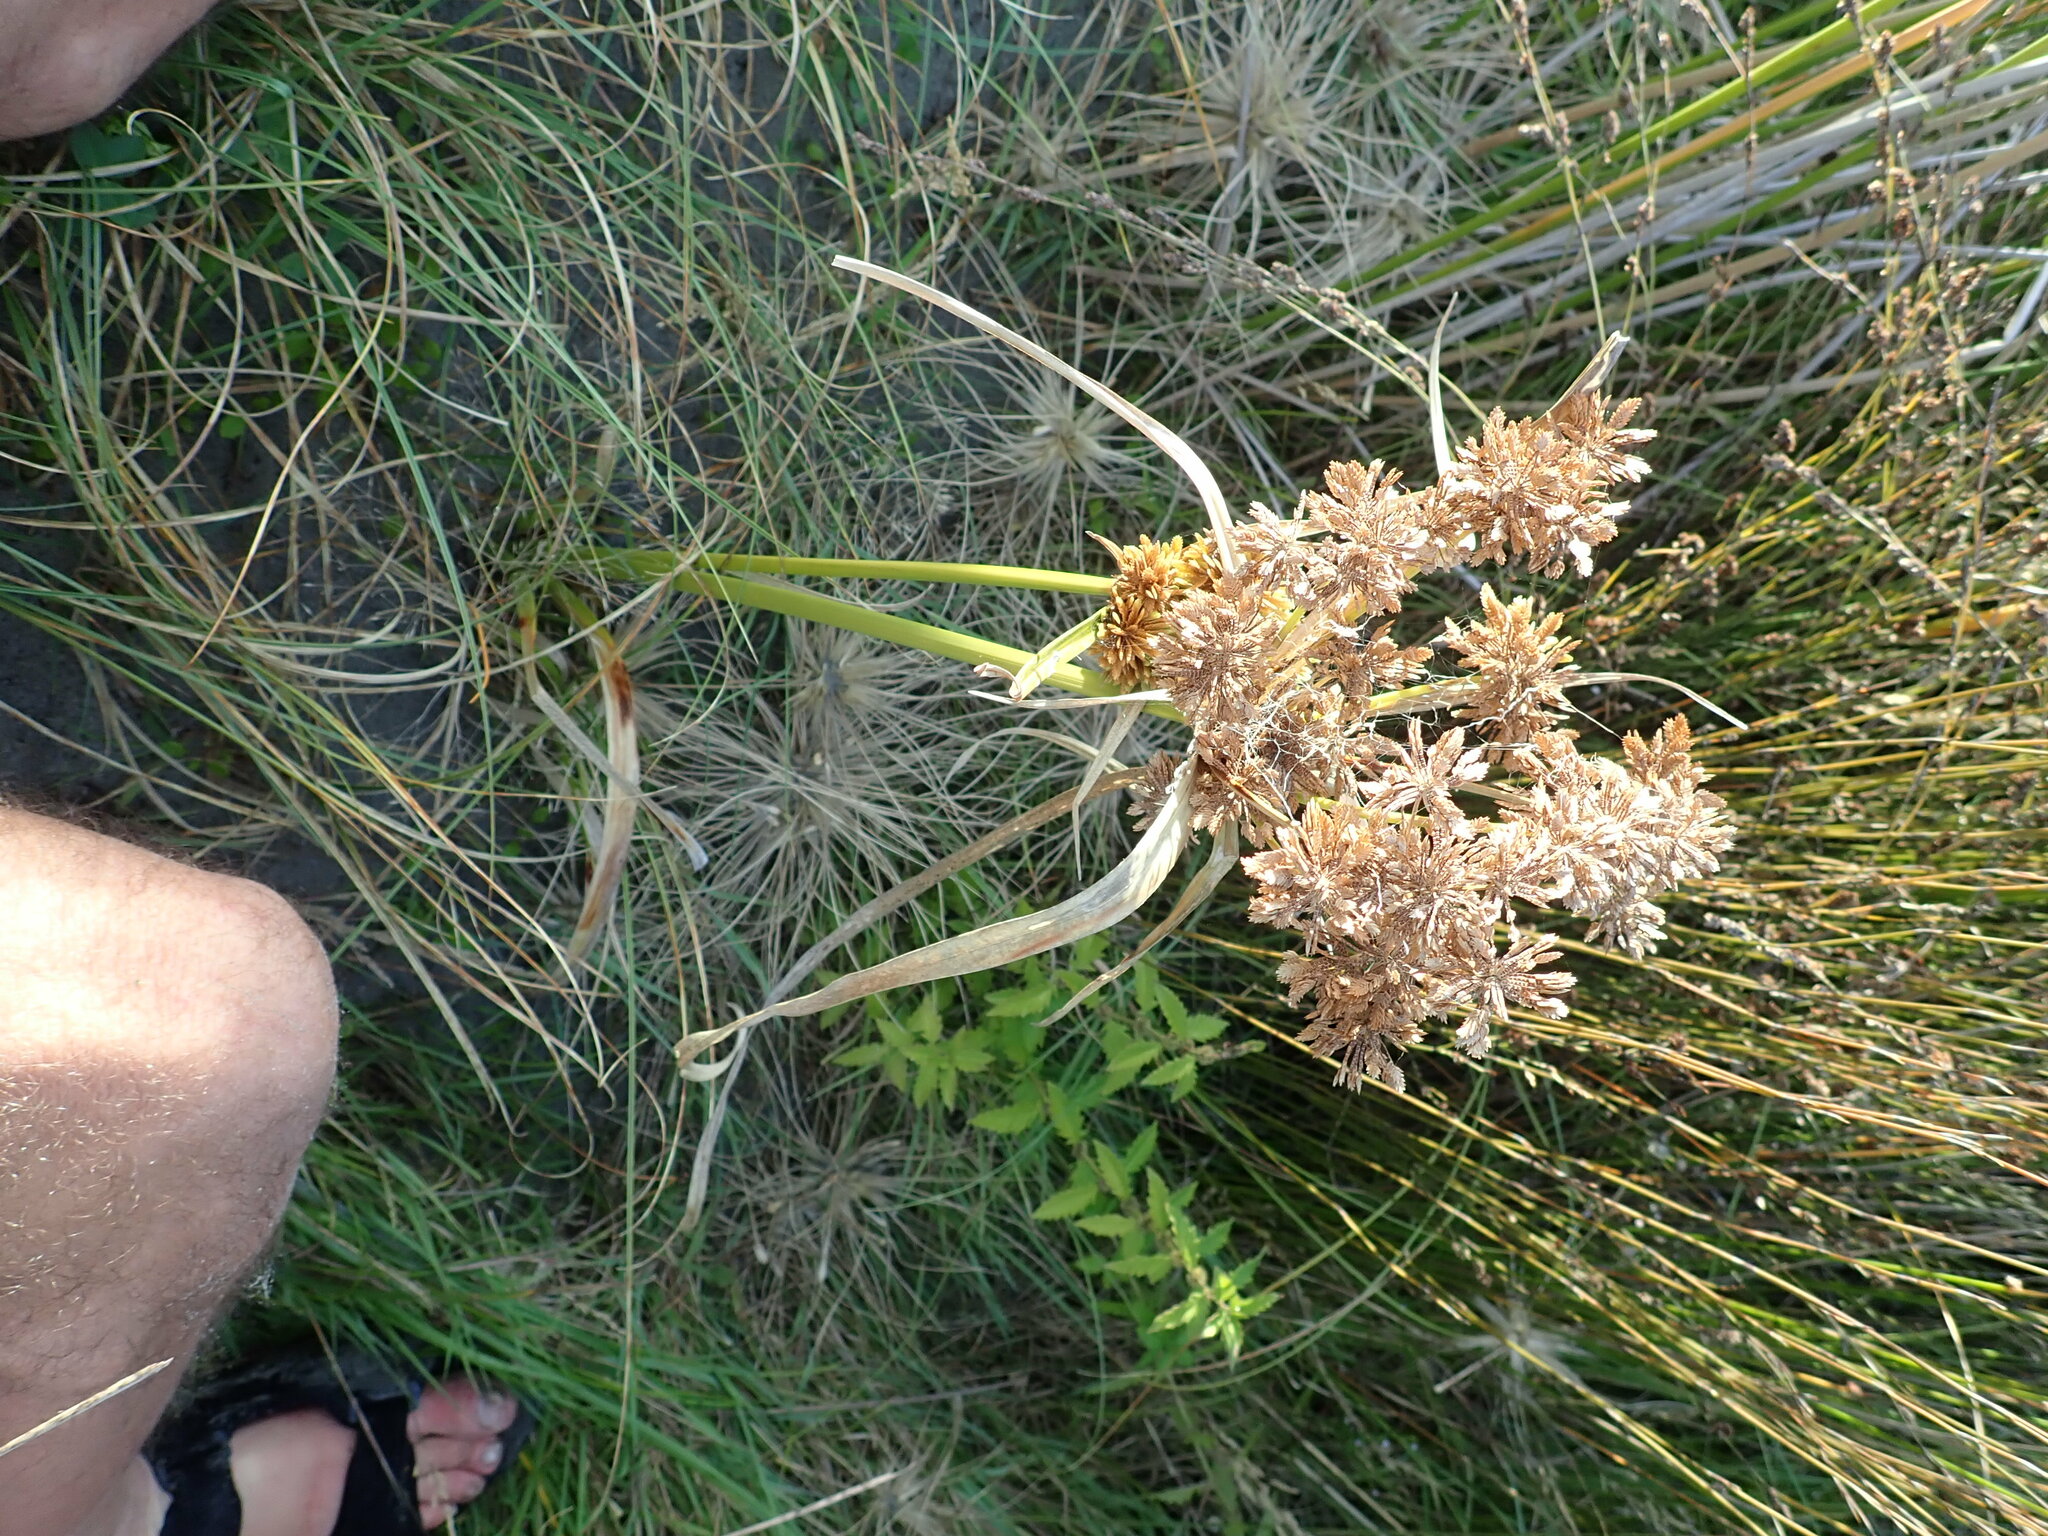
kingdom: Plantae
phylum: Tracheophyta
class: Liliopsida
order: Poales
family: Cyperaceae
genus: Cyperus
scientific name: Cyperus eragrostis
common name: Tall flatsedge
